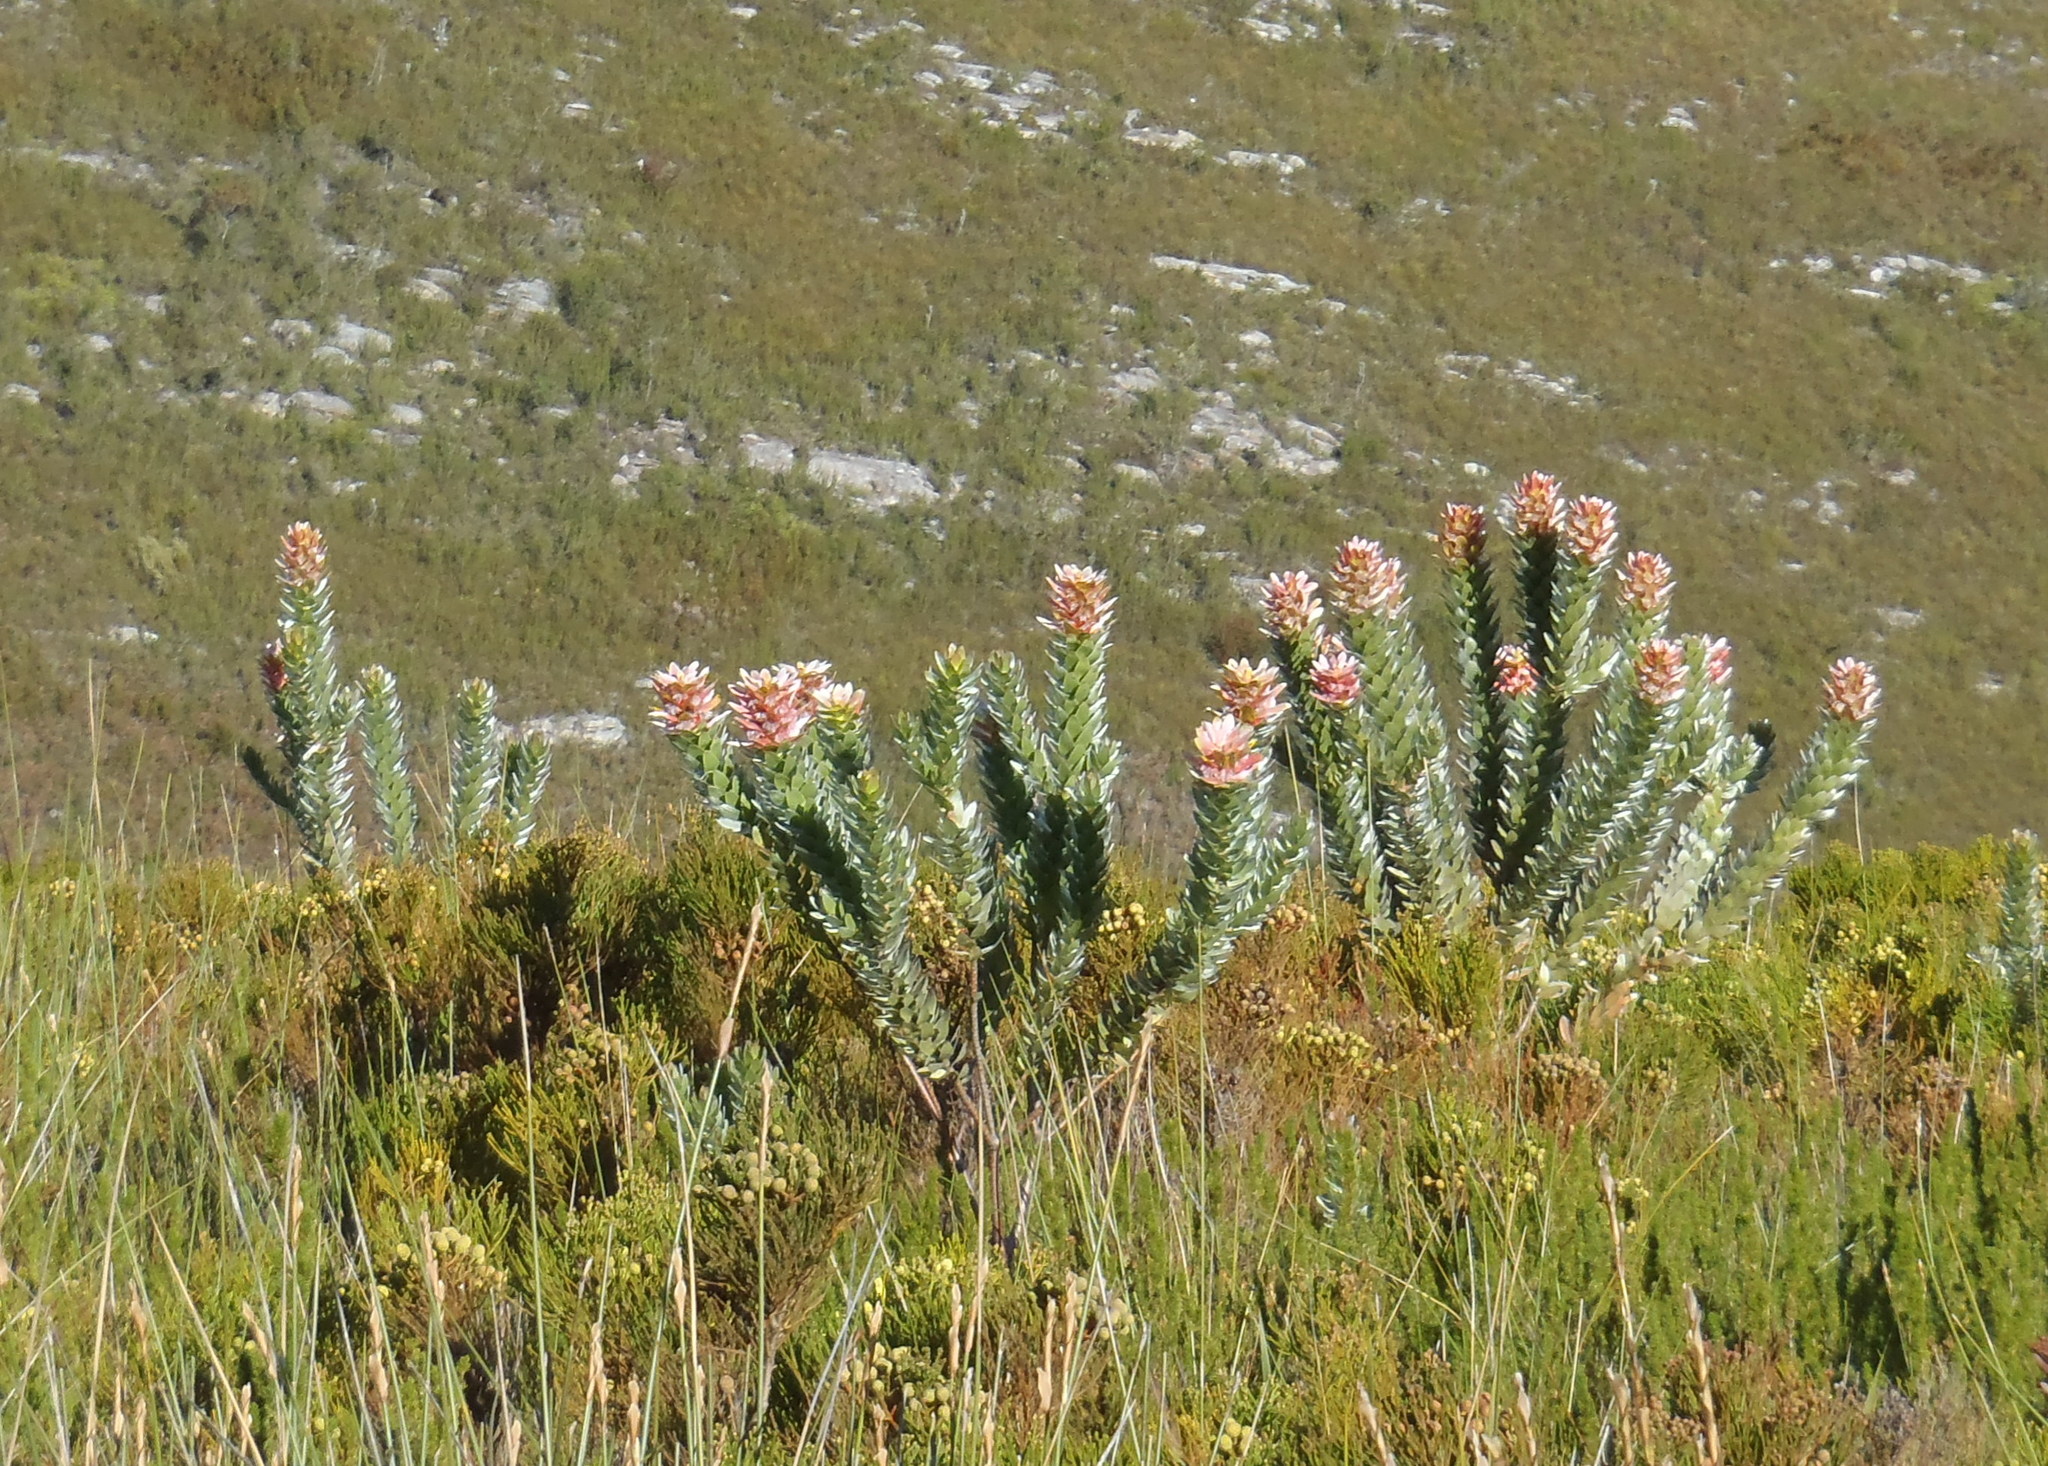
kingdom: Plantae
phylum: Tracheophyta
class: Magnoliopsida
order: Proteales
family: Proteaceae
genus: Mimetes
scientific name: Mimetes splendidus
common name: Splendid pagoda
